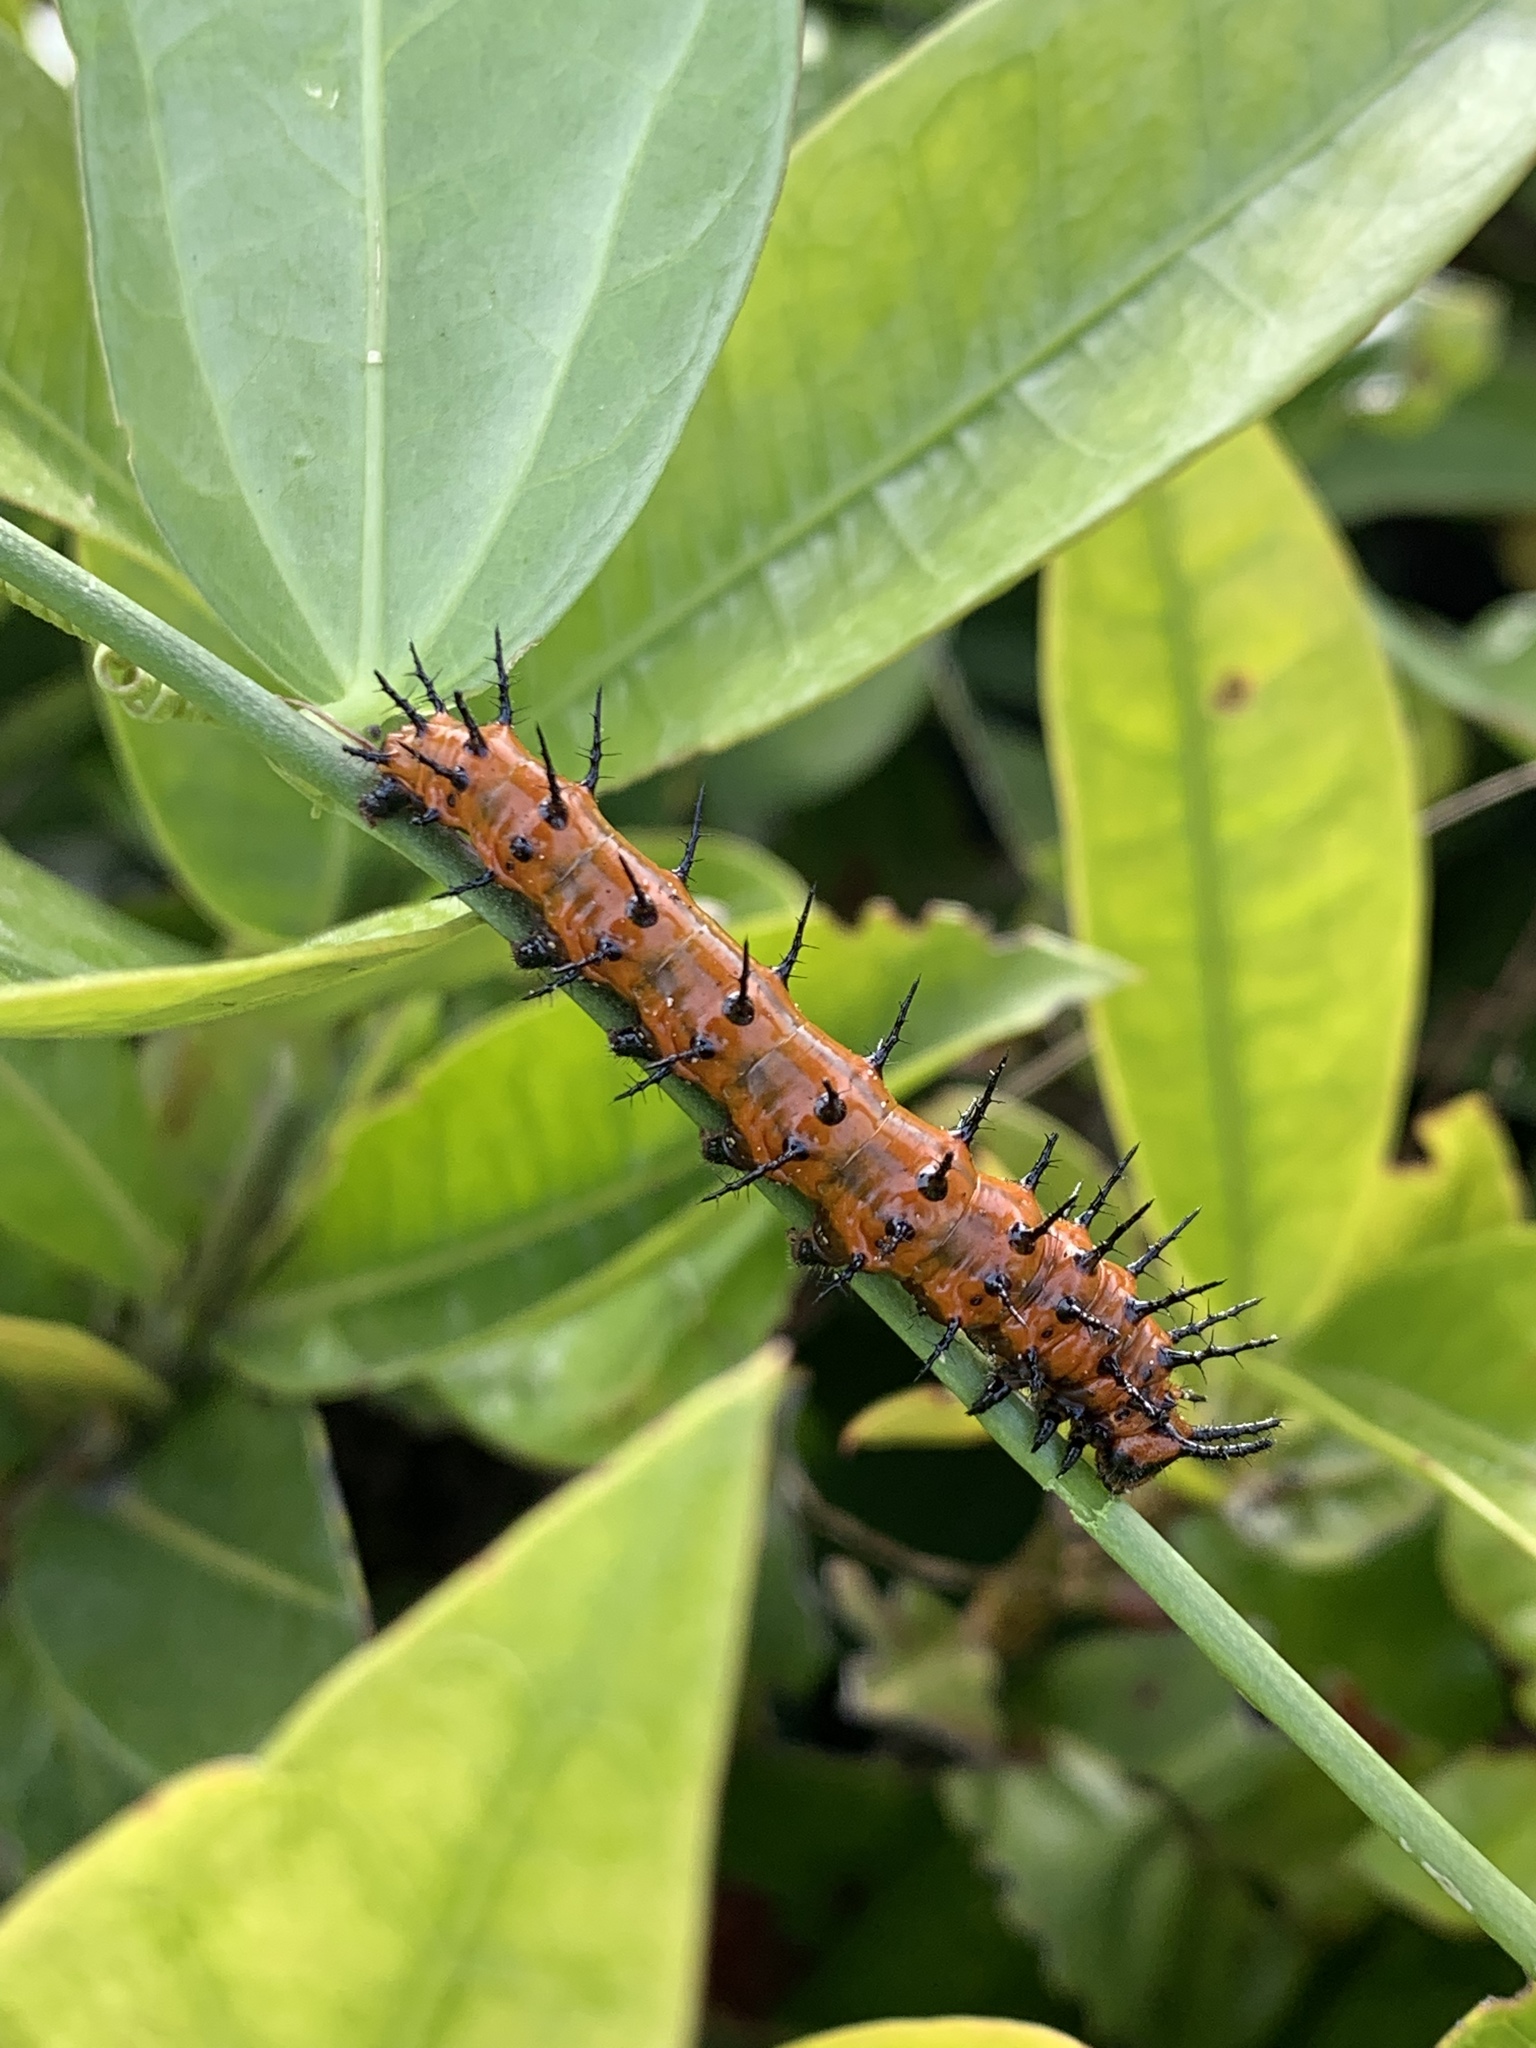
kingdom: Animalia
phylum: Arthropoda
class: Insecta
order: Lepidoptera
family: Nymphalidae
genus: Dione
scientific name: Dione vanillae
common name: Gulf fritillary
